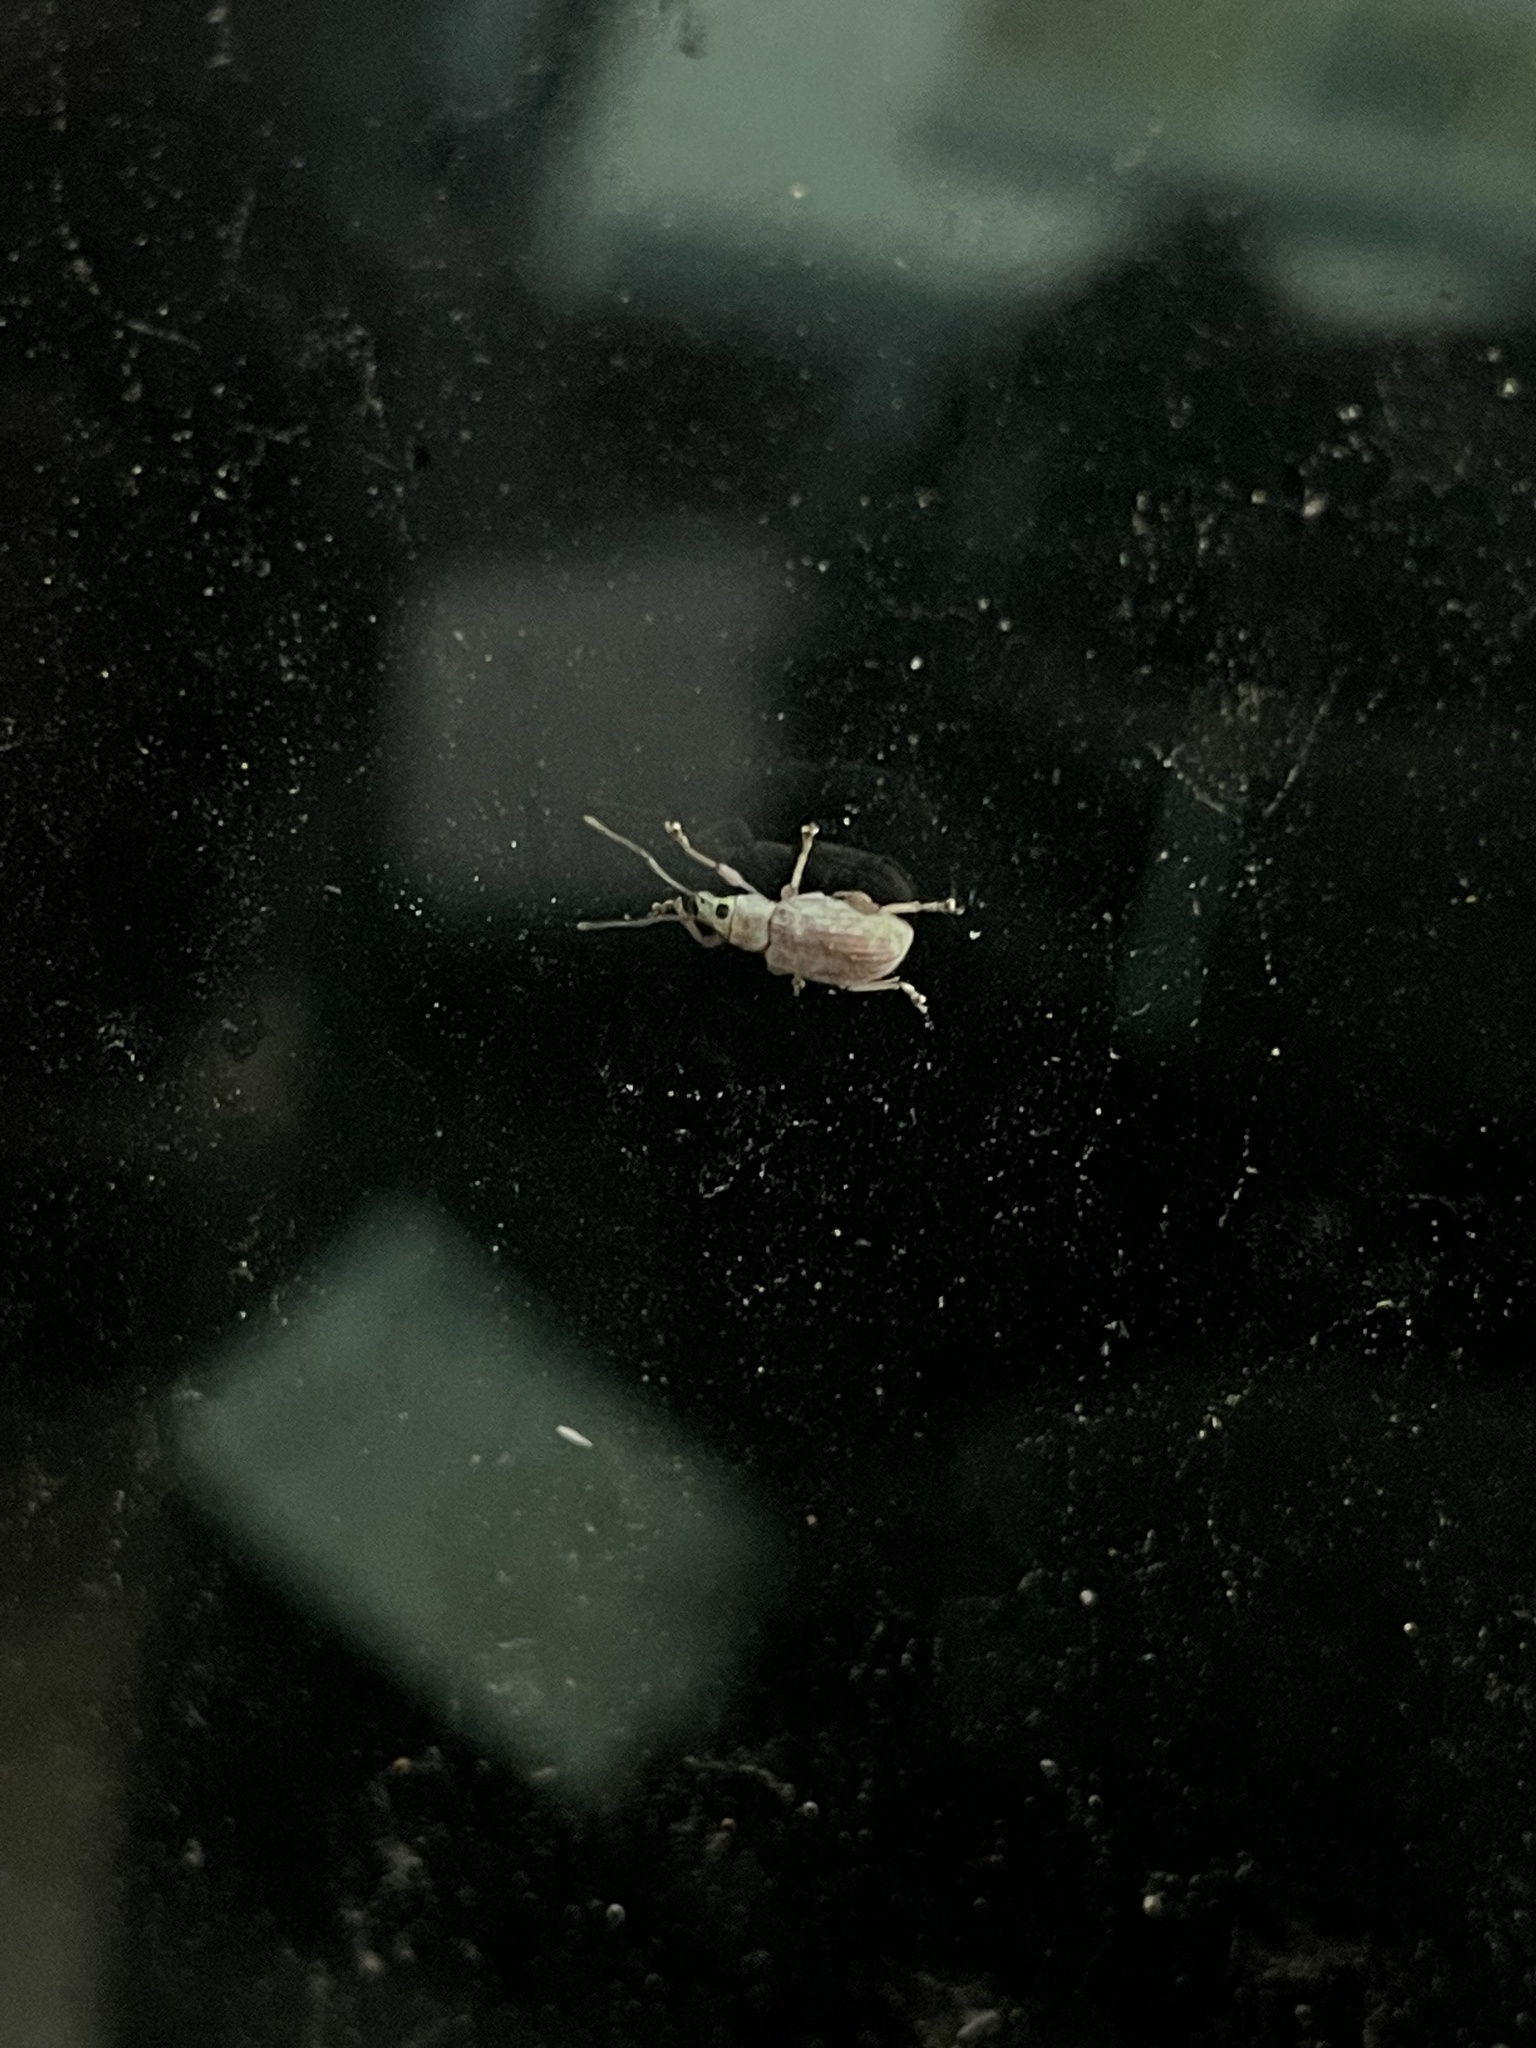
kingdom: Animalia
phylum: Arthropoda
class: Insecta
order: Coleoptera
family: Curculionidae
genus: Cyrtepistomus
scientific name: Cyrtepistomus castaneus
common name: Weevil
